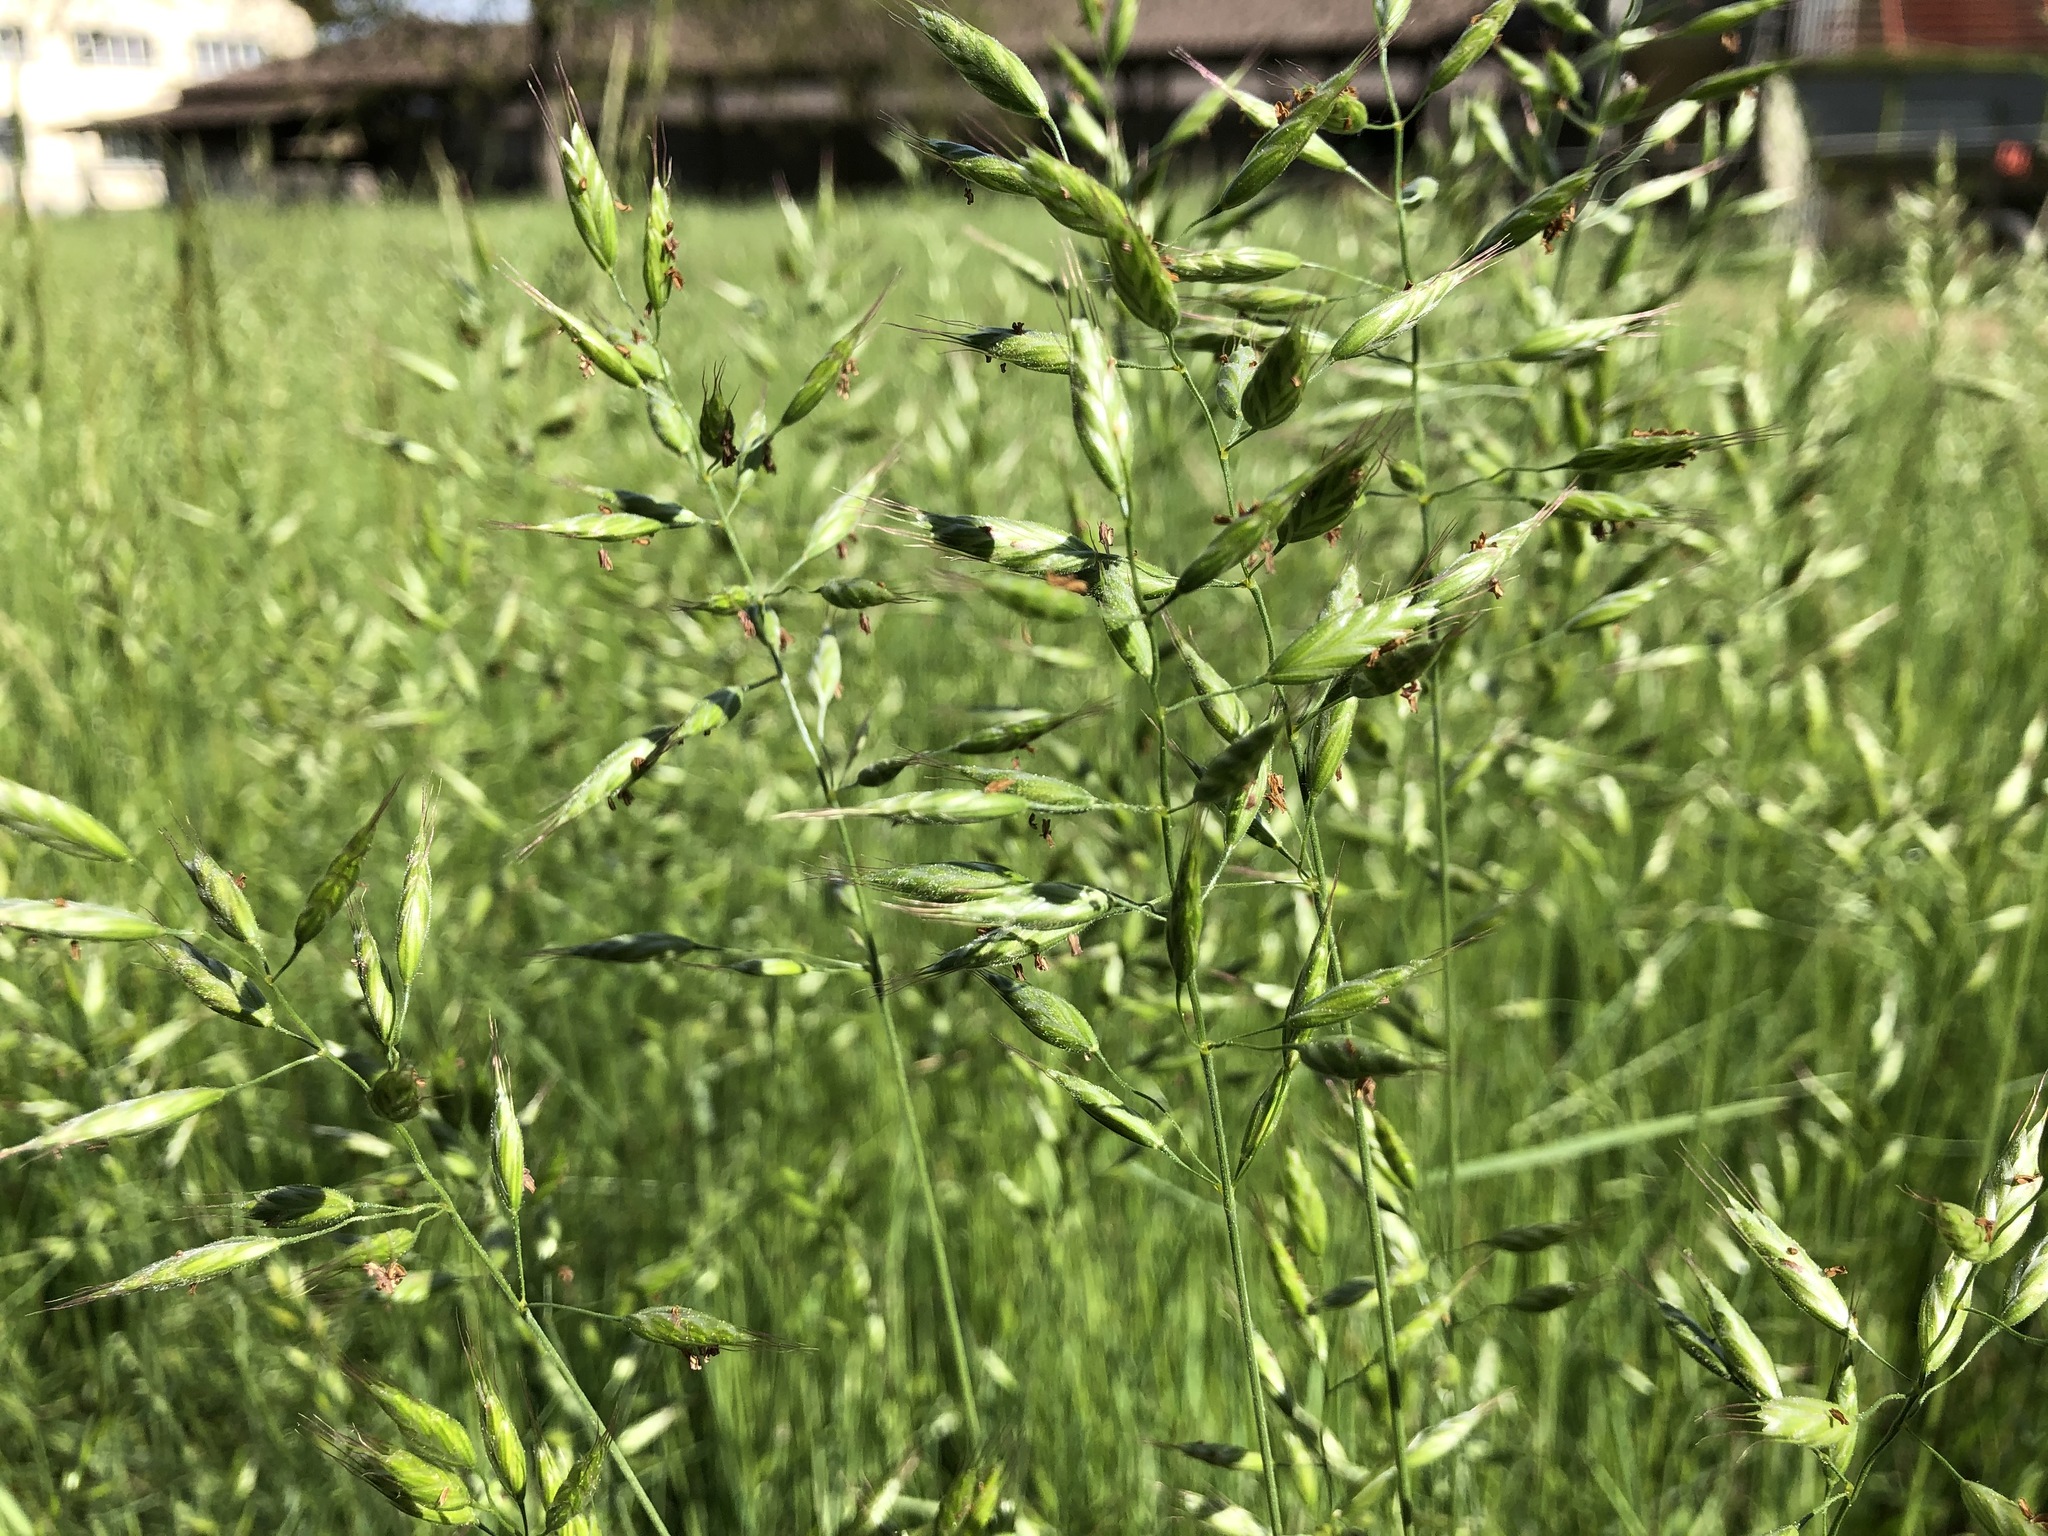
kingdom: Plantae
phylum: Tracheophyta
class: Liliopsida
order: Poales
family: Poaceae
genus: Bromus
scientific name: Bromus hordeaceus
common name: Soft brome
